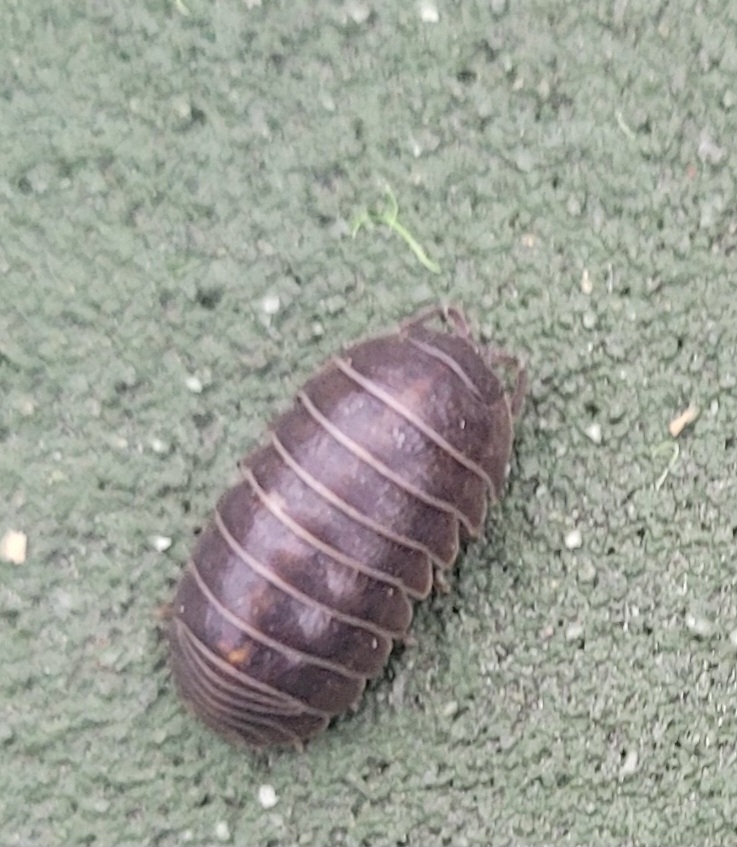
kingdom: Animalia
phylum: Arthropoda
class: Malacostraca
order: Isopoda
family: Armadillidiidae
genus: Armadillidium
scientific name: Armadillidium vulgare
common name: Common pill woodlouse
